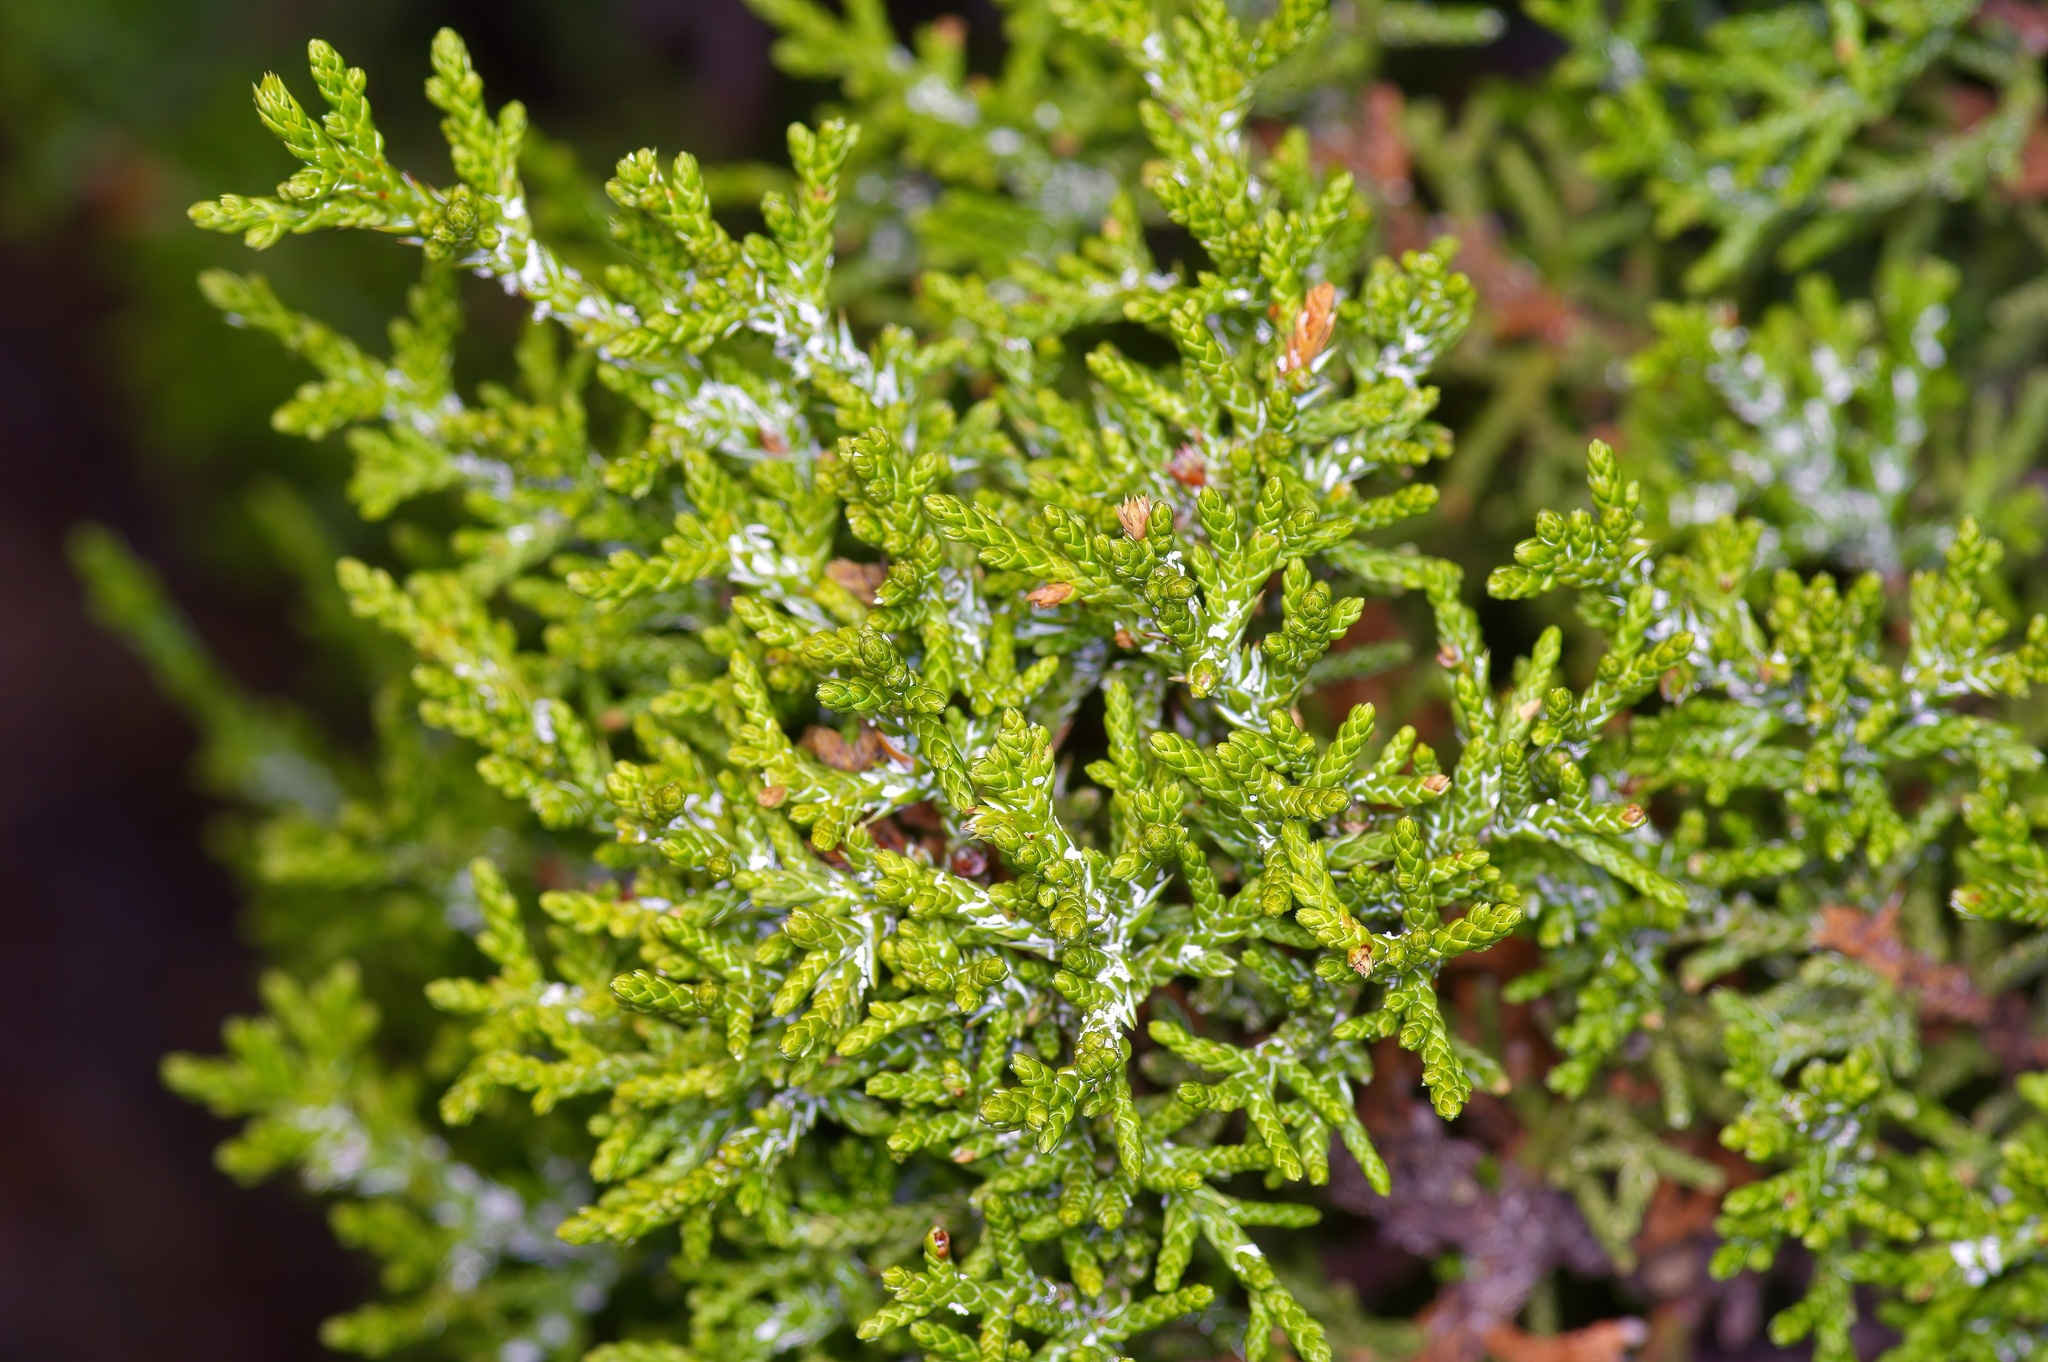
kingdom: Plantae
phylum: Tracheophyta
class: Pinopsida
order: Pinales
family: Cupressaceae
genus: Juniperus
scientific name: Juniperus monosperma
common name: One-seed juniper
